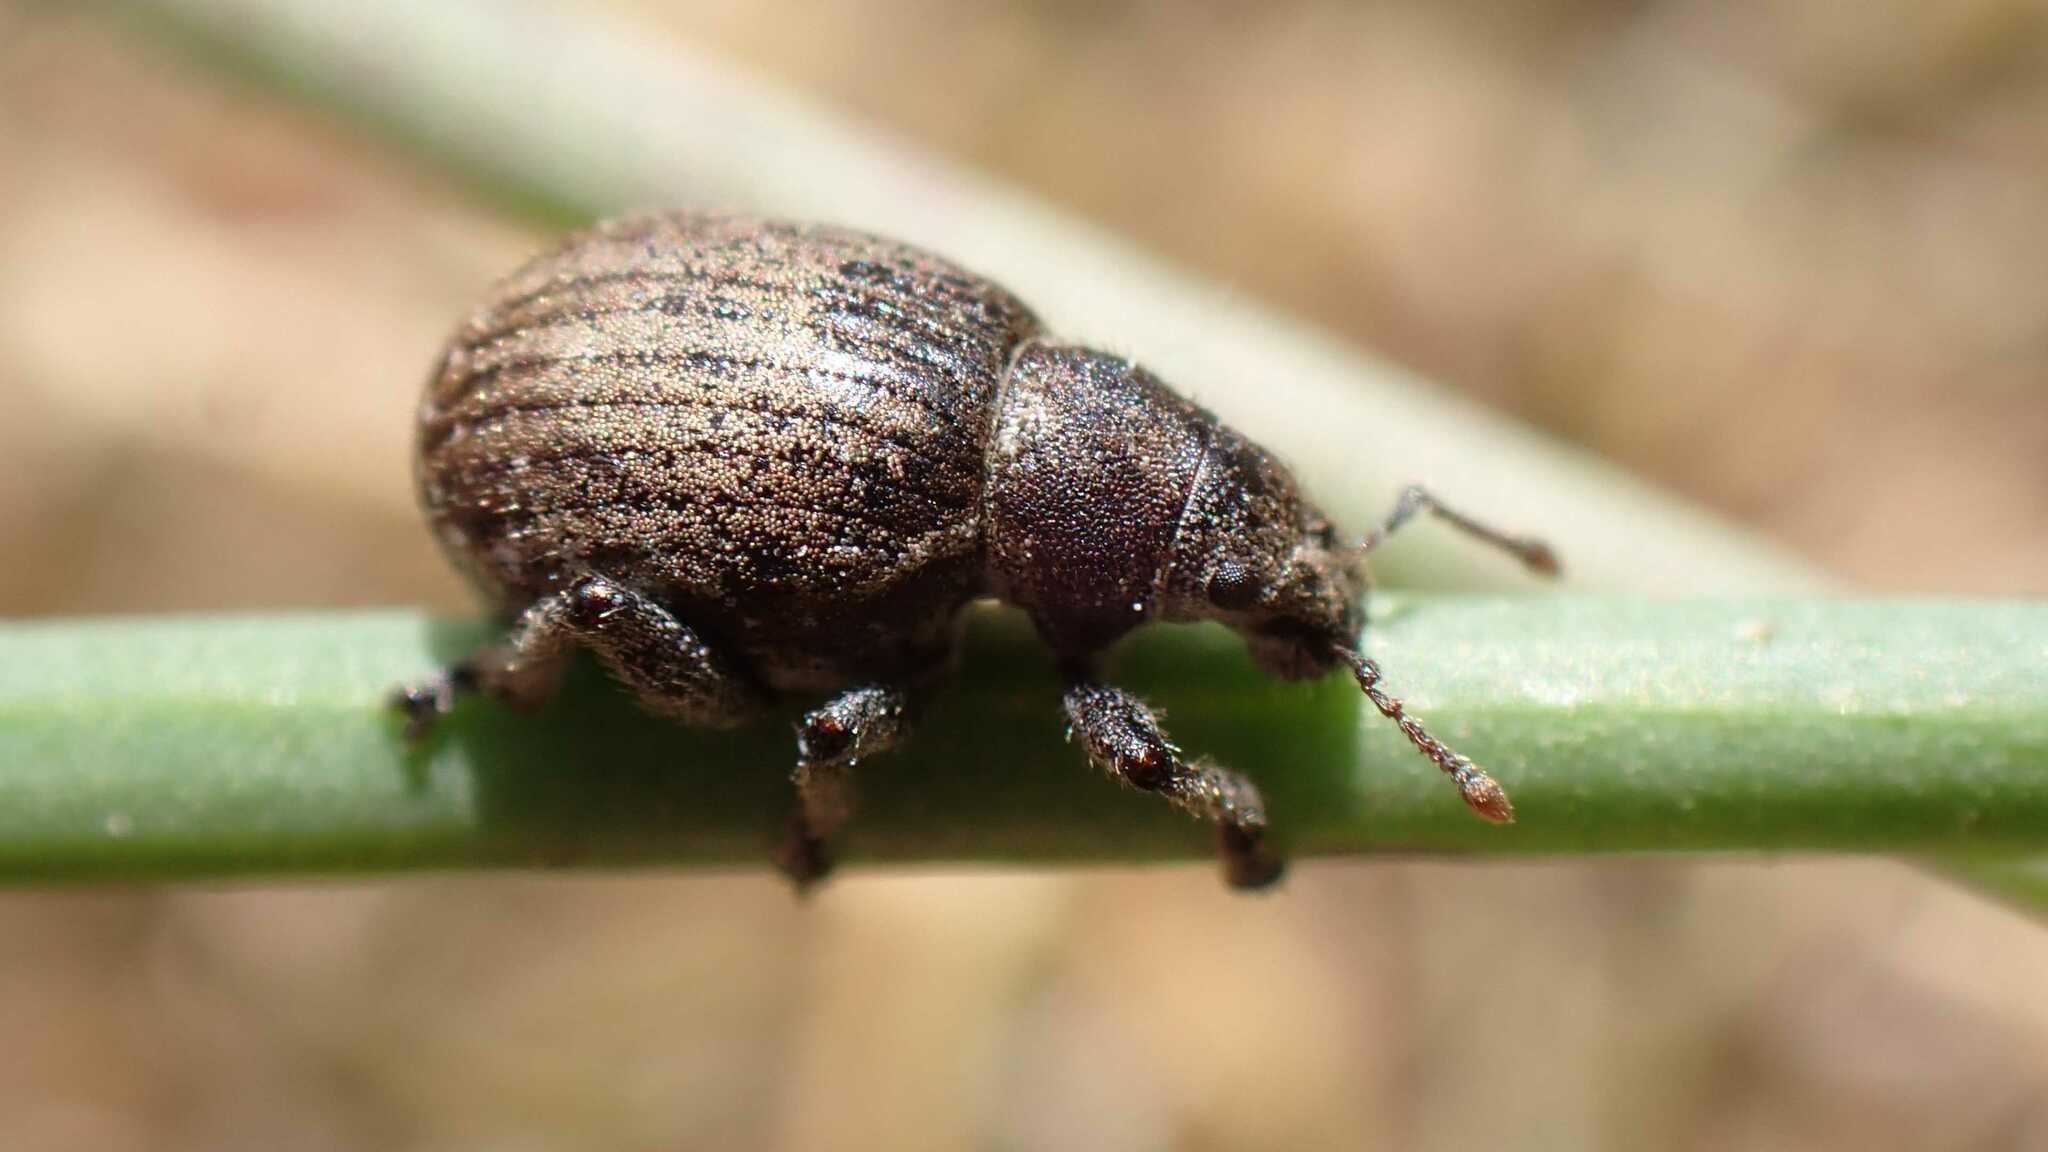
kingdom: Animalia
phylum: Arthropoda
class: Insecta
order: Coleoptera
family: Curculionidae
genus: Philopedon
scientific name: Philopedon plagiatum
